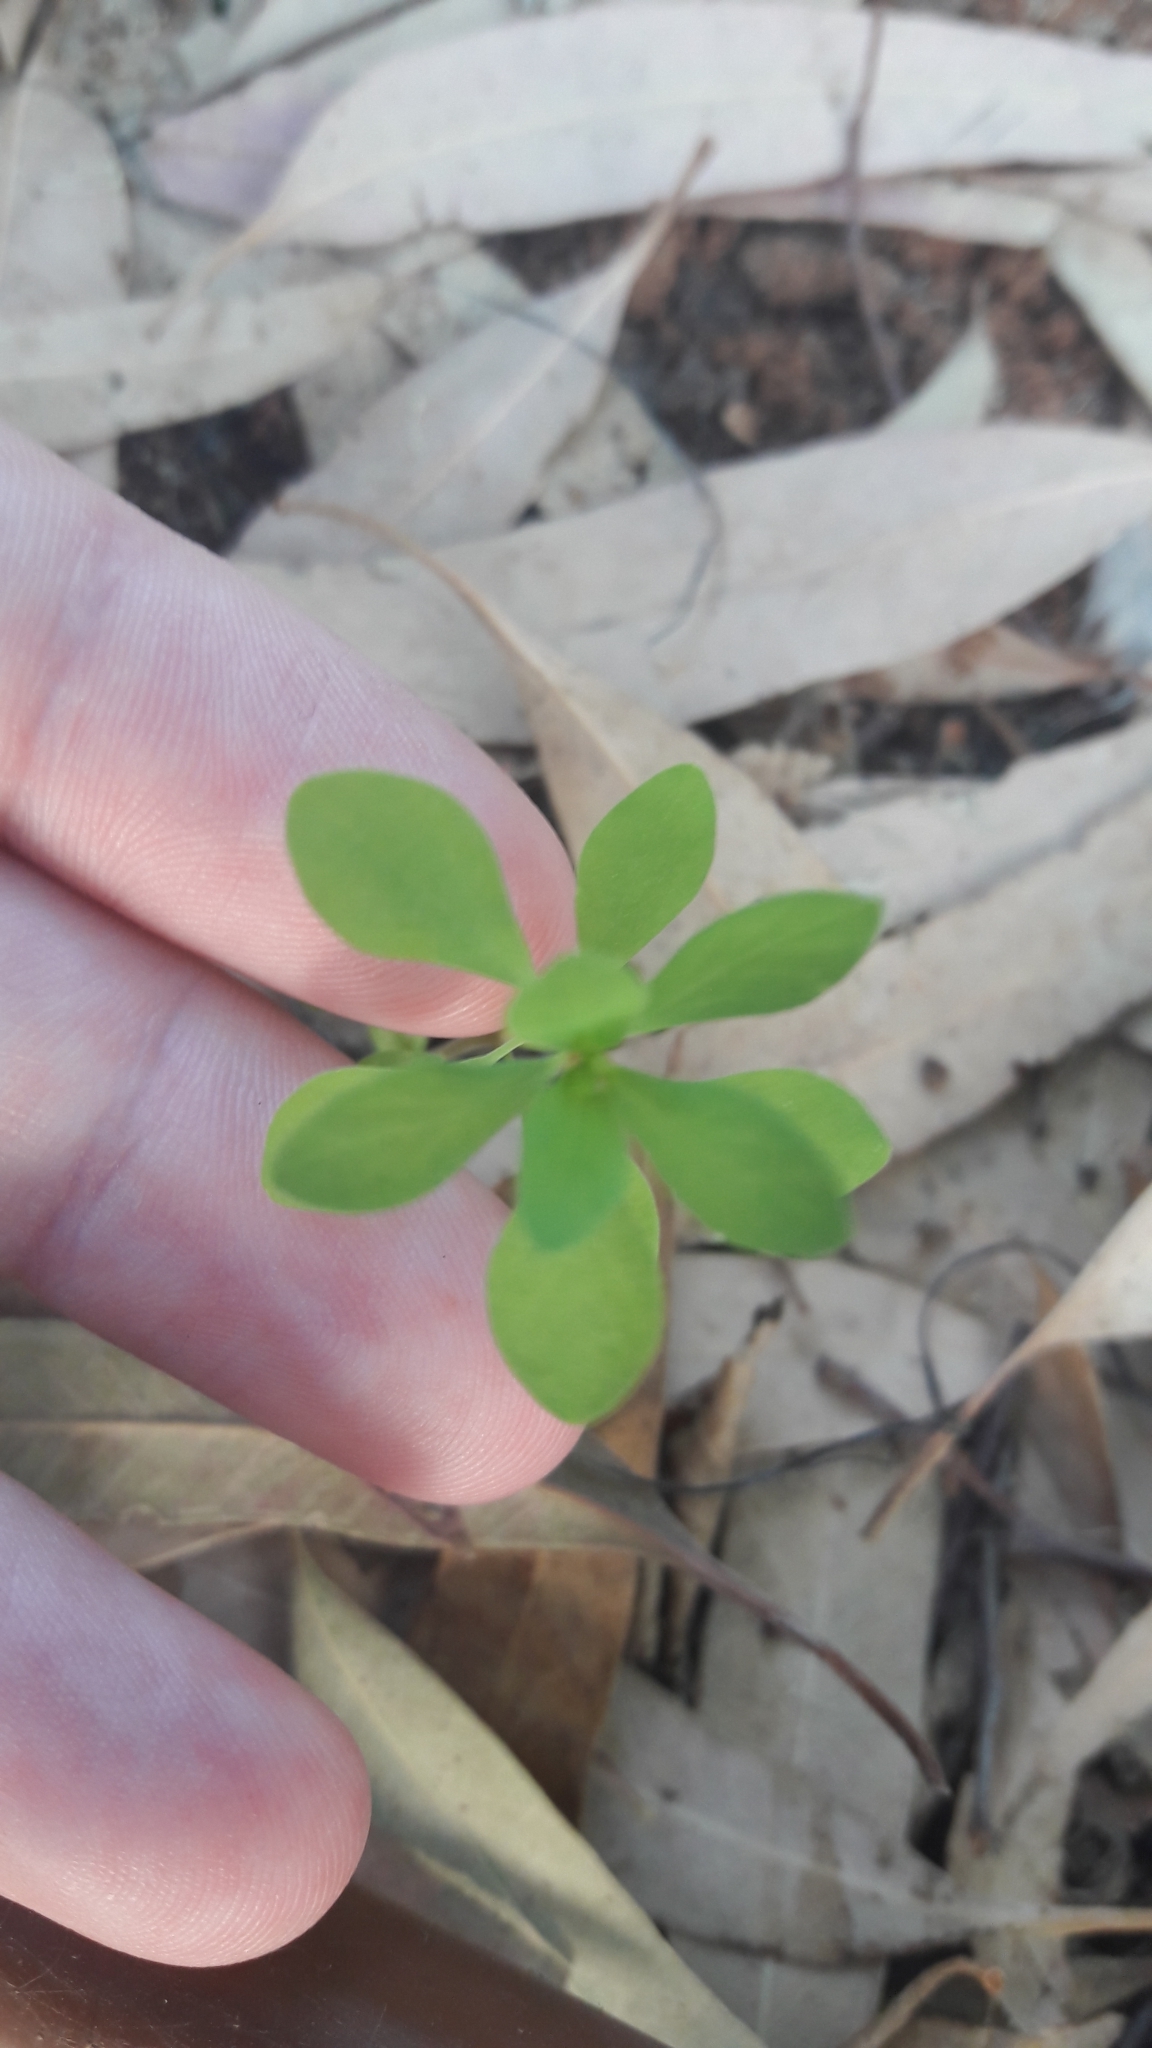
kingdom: Plantae
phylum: Tracheophyta
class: Magnoliopsida
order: Malpighiales
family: Euphorbiaceae
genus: Euphorbia
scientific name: Euphorbia peplus
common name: Petty spurge
